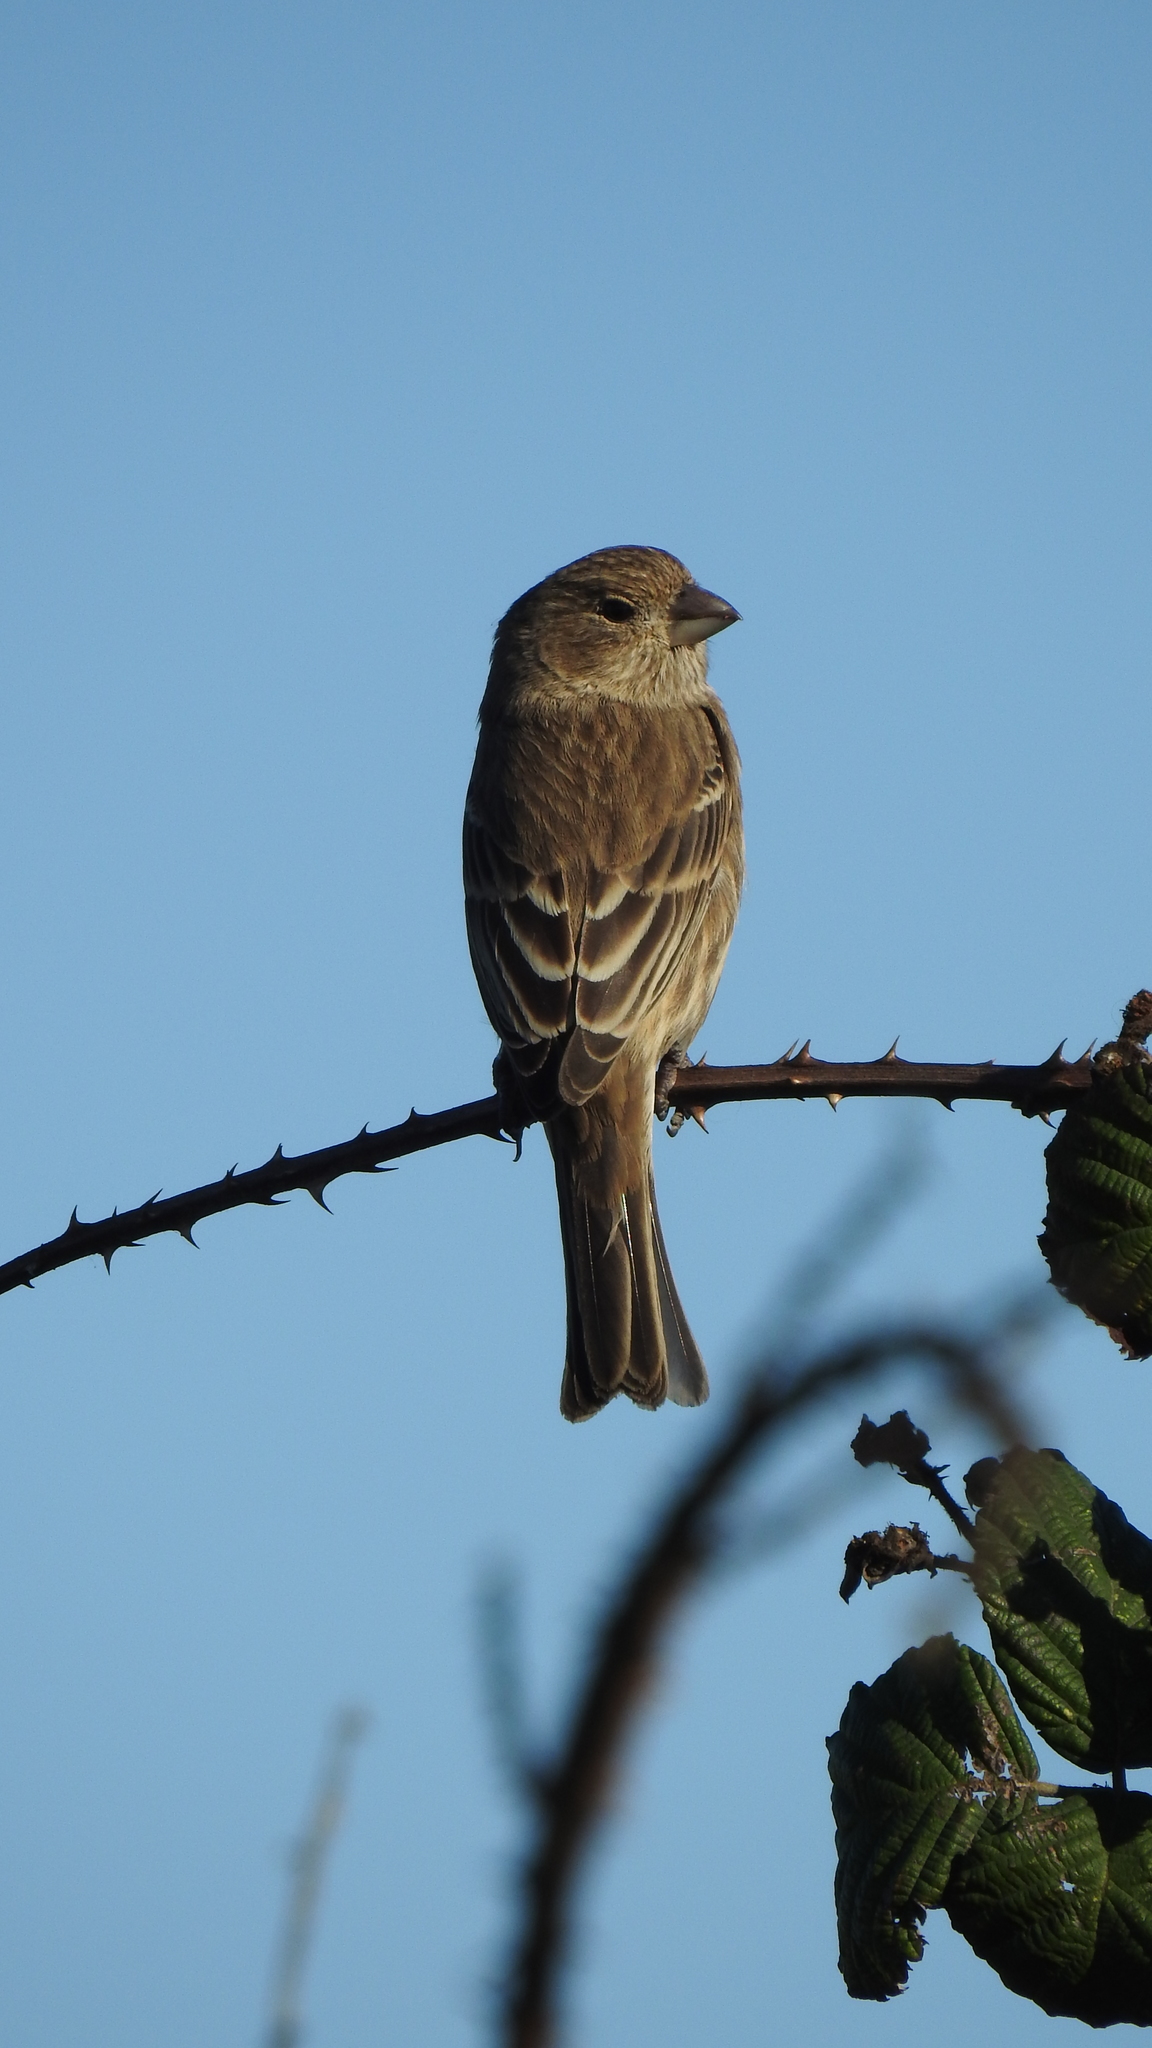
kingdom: Animalia
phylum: Chordata
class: Aves
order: Passeriformes
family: Fringillidae
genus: Haemorhous
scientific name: Haemorhous mexicanus
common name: House finch
